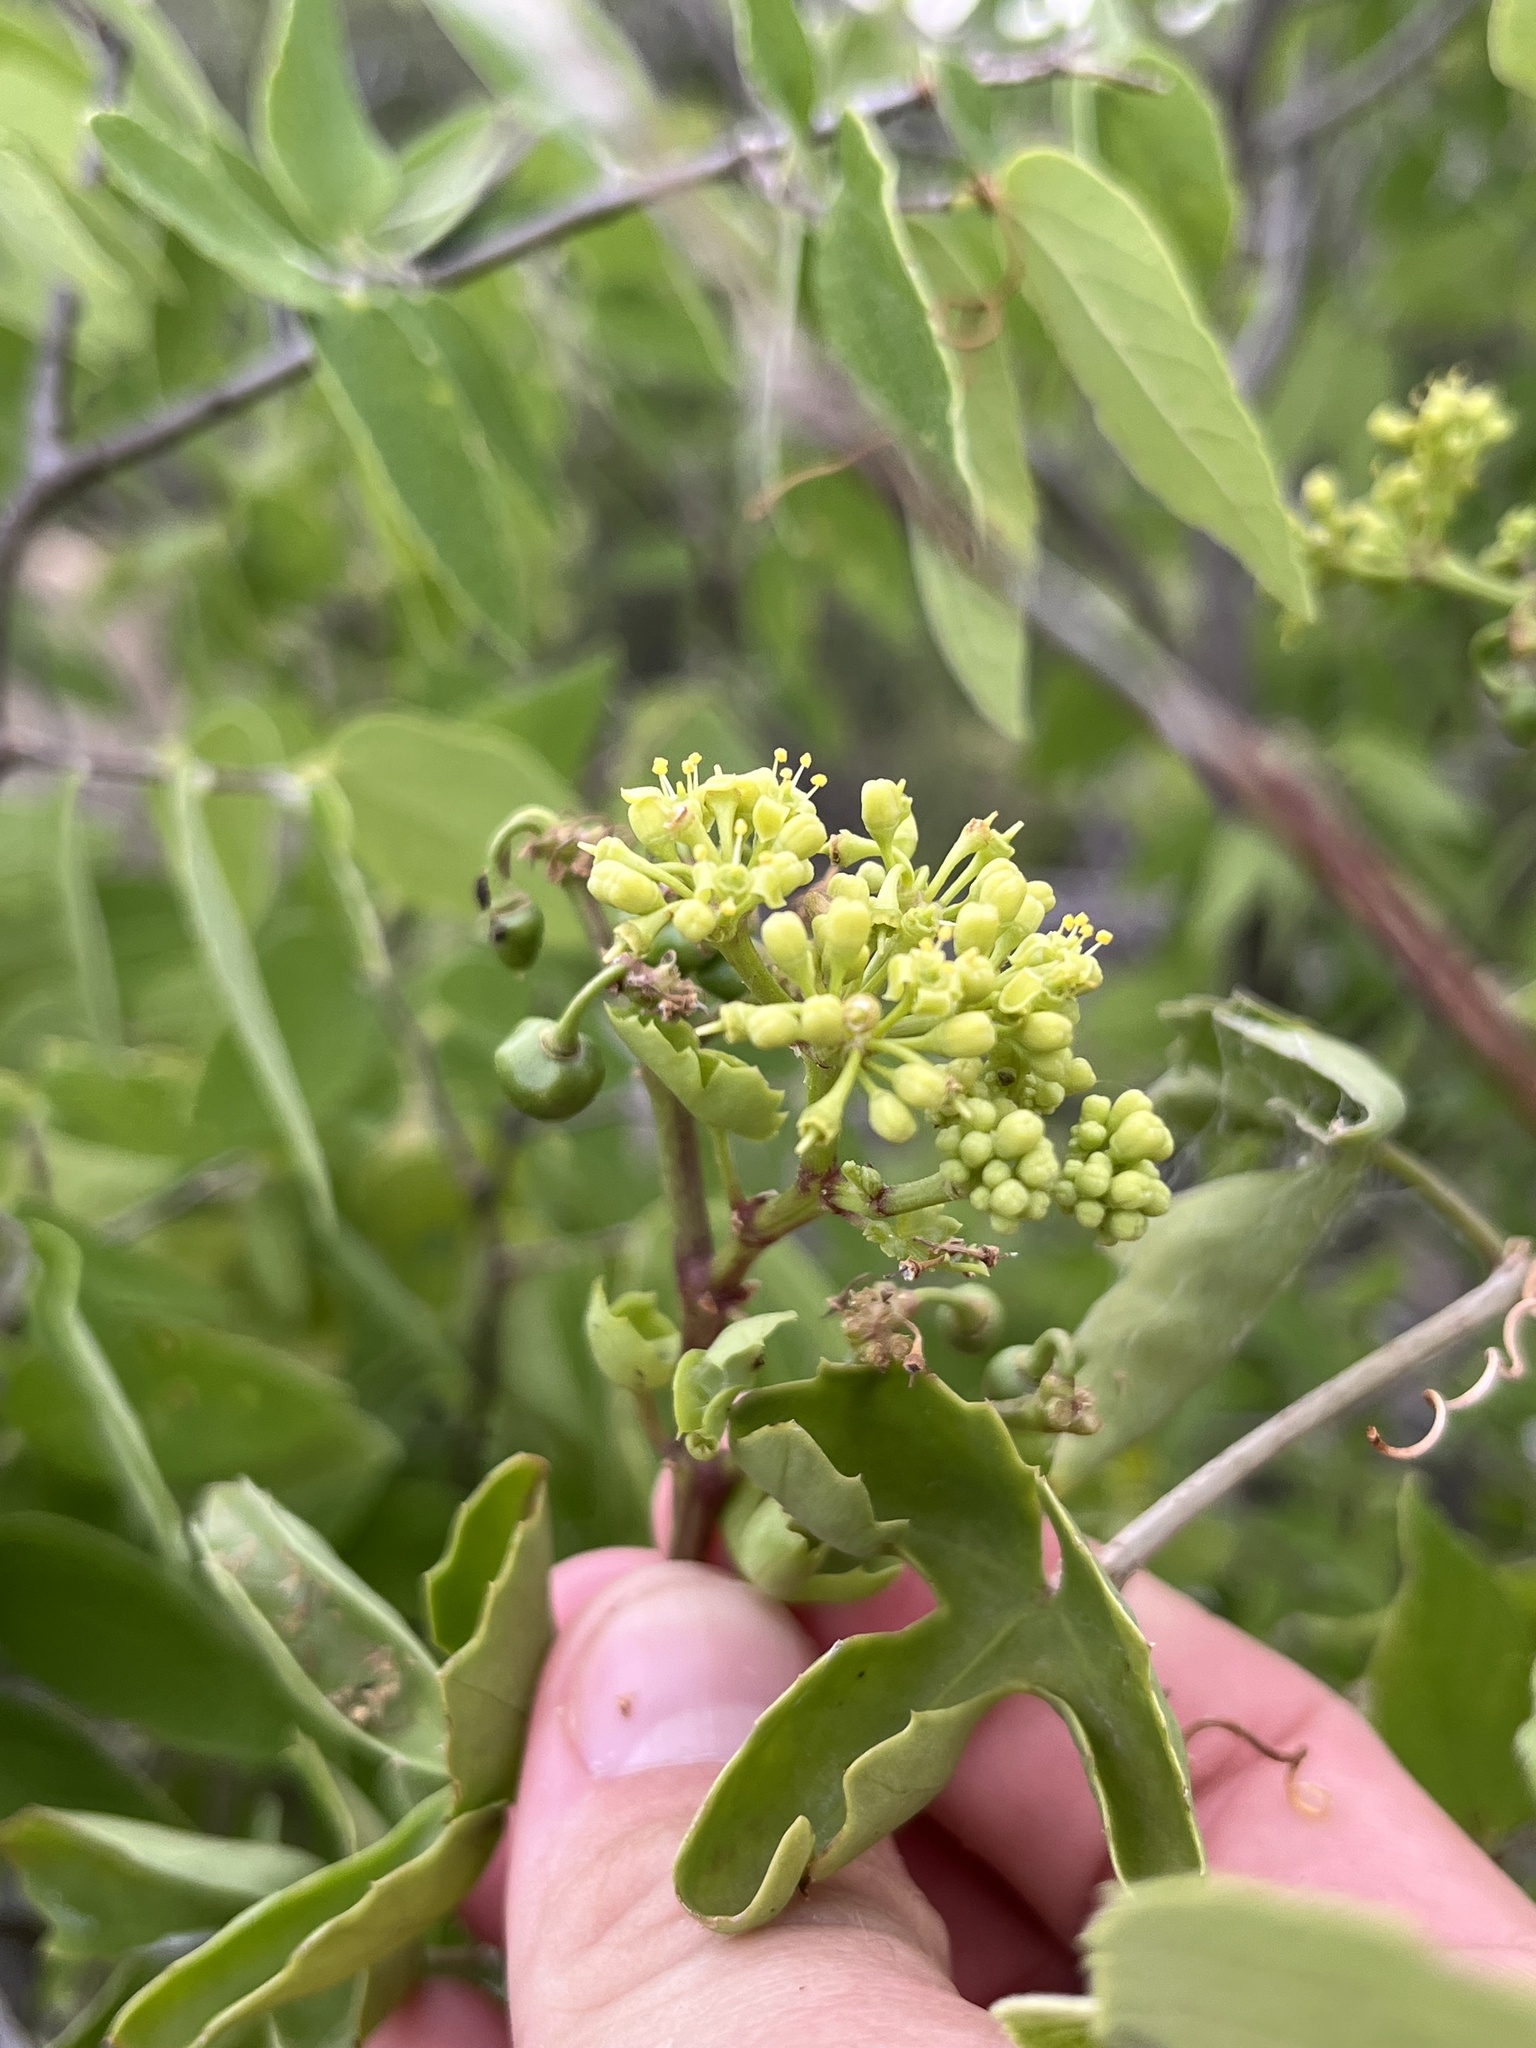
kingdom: Plantae
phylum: Tracheophyta
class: Magnoliopsida
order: Vitales
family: Vitaceae
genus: Cissus
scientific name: Cissus trifoliata
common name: Vine-sorrel
